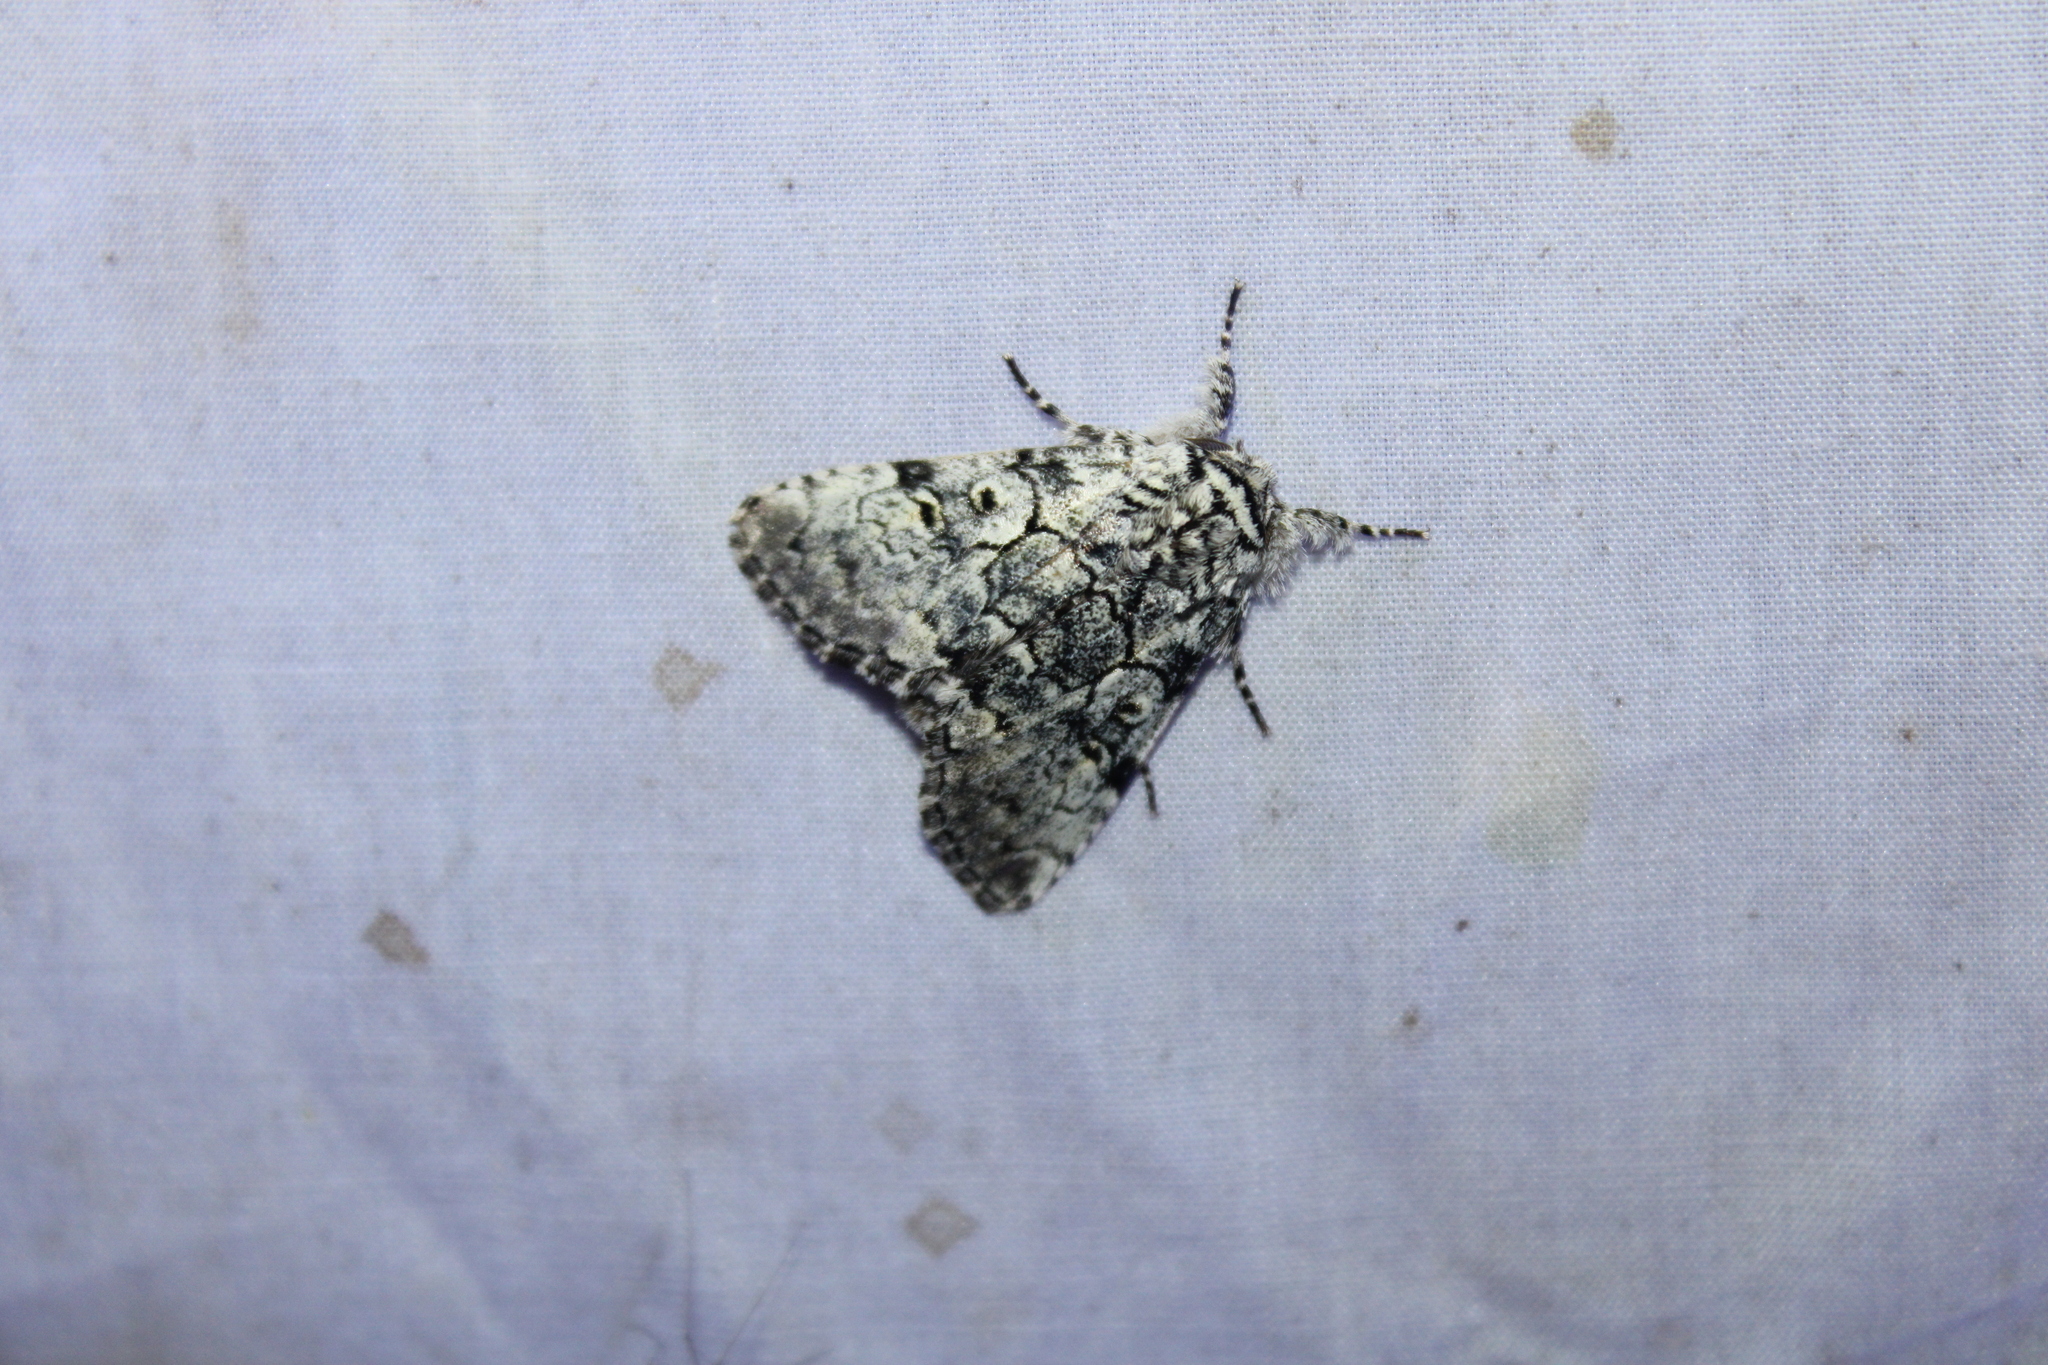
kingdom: Animalia
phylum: Arthropoda
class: Insecta
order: Lepidoptera
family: Noctuidae
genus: Charadra
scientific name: Charadra deridens
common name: Marbled tuffet
